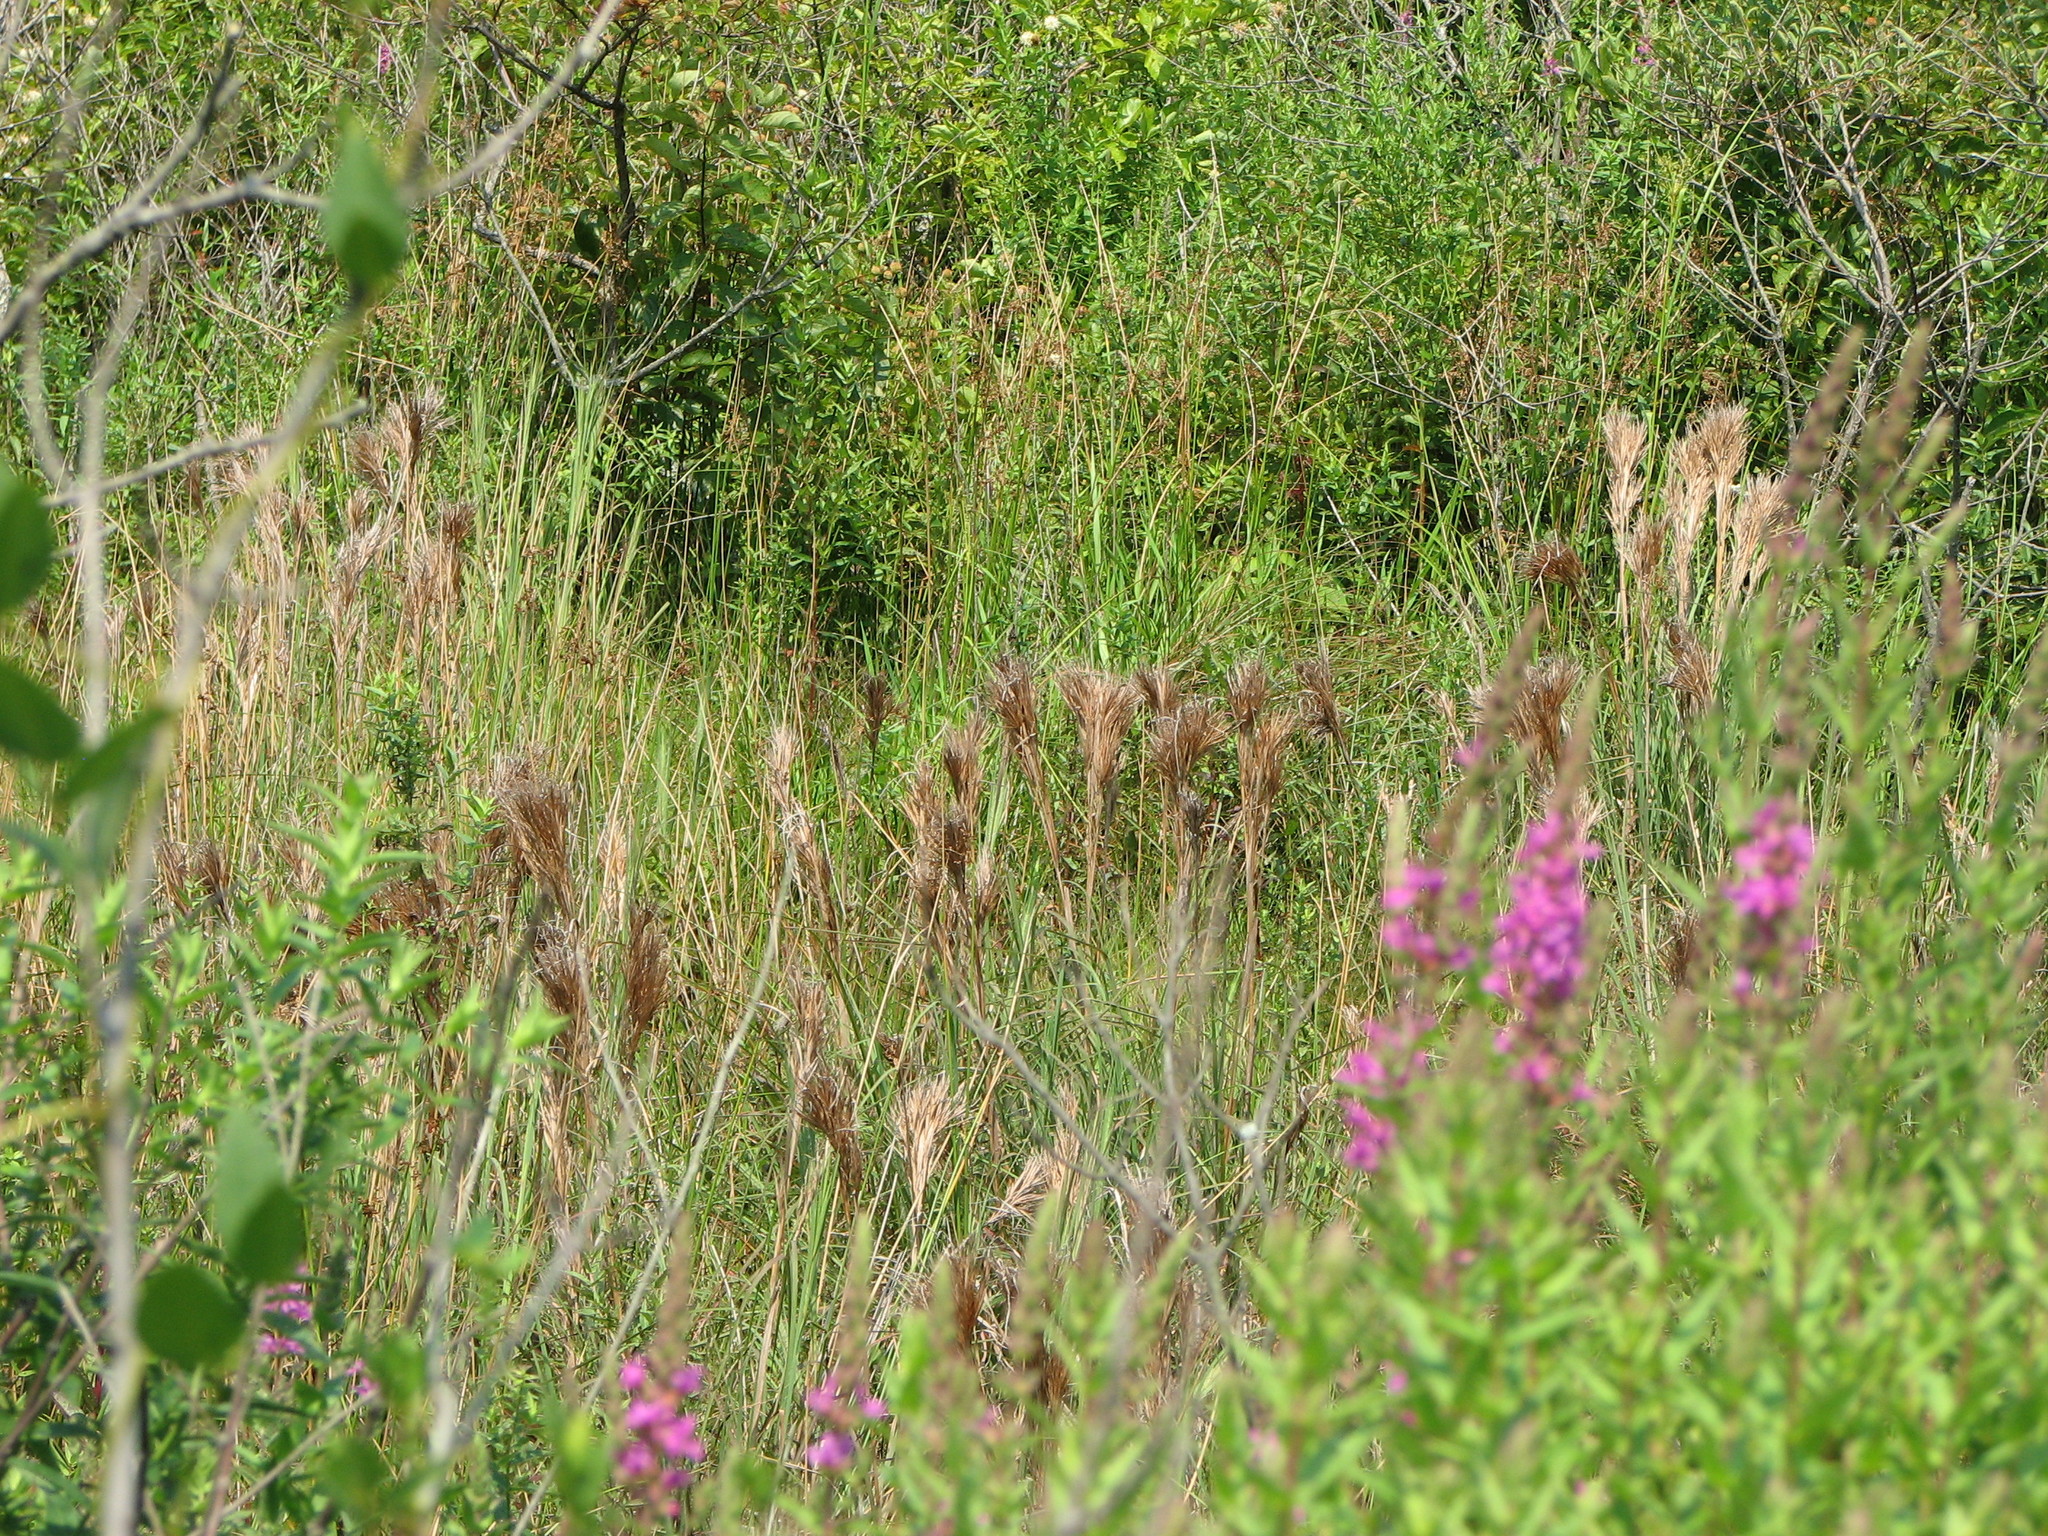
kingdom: Plantae
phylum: Tracheophyta
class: Liliopsida
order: Poales
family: Poaceae
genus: Andropogon
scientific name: Andropogon glomeratus
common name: Bushy beard grass
